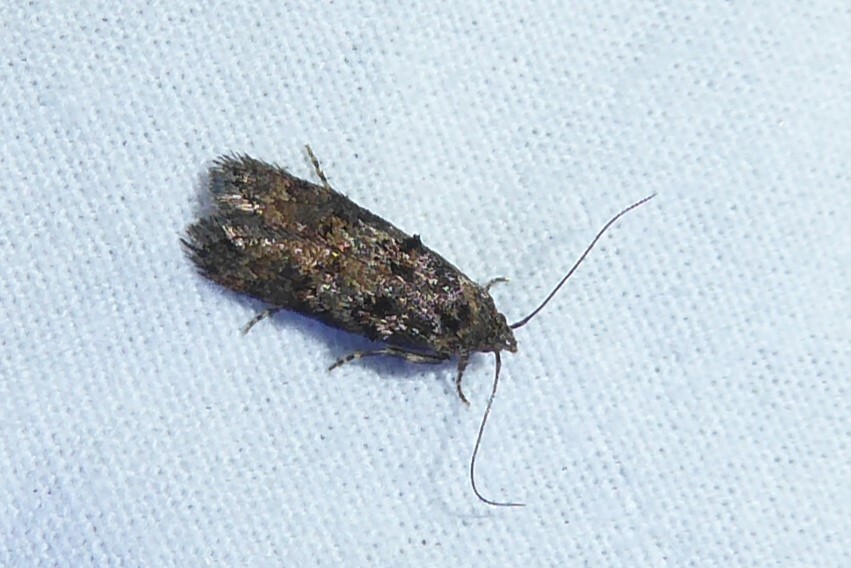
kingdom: Animalia
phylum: Arthropoda
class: Insecta
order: Lepidoptera
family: Oecophoridae
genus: Trachypepla
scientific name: Trachypepla anastrella
